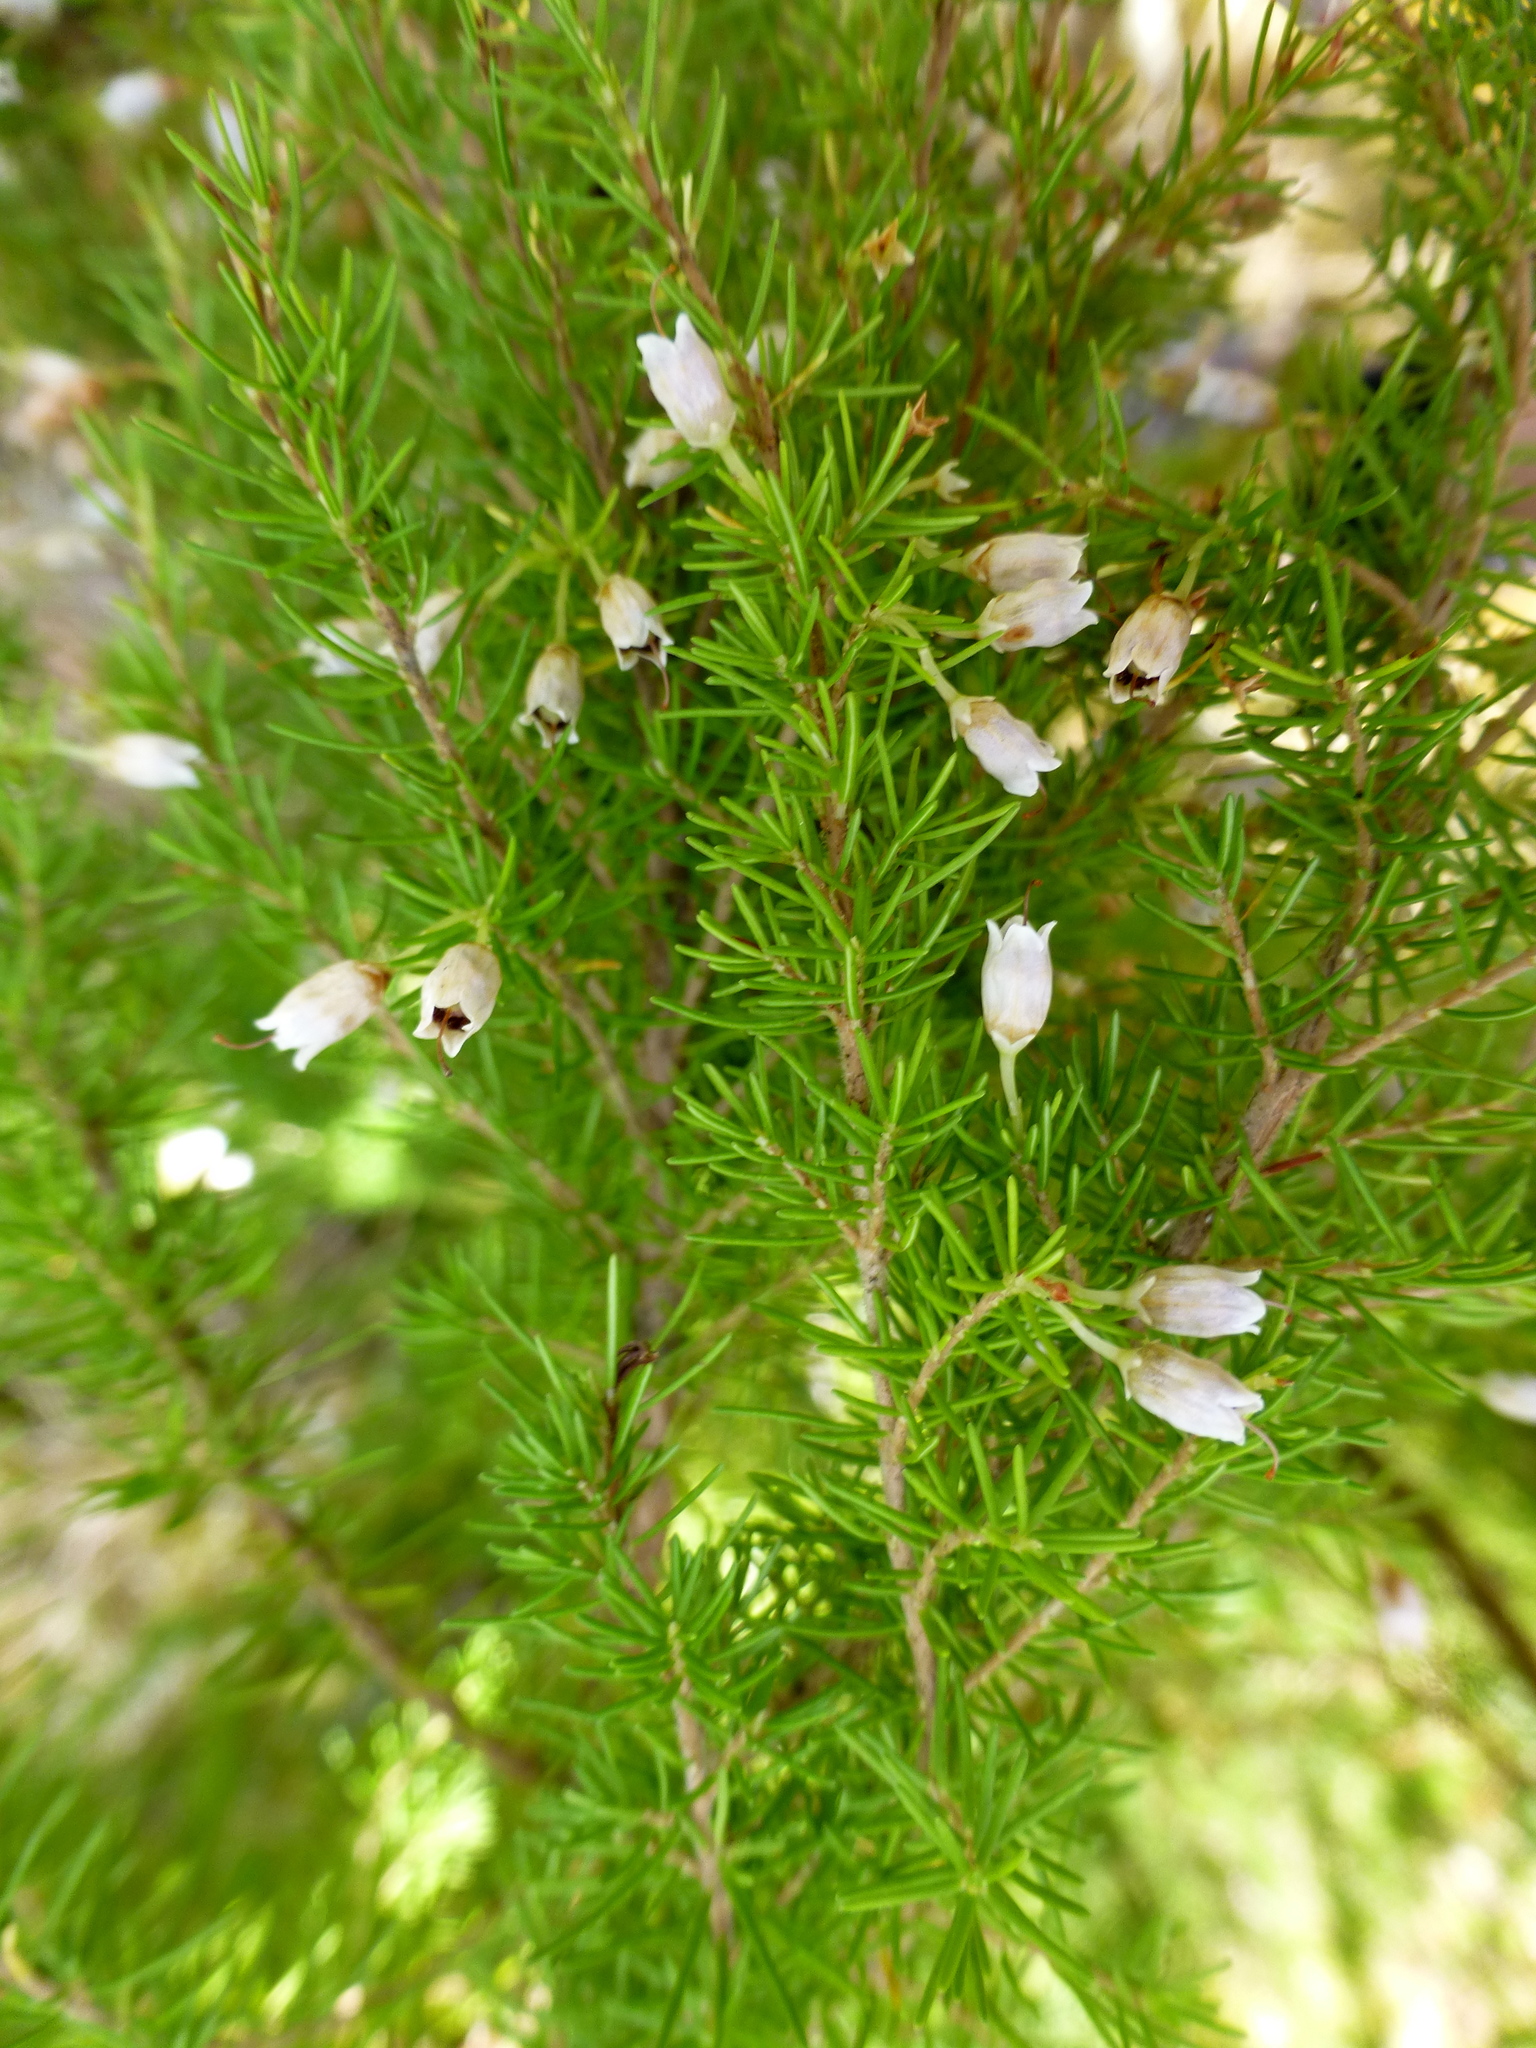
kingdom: Plantae
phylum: Tracheophyta
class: Magnoliopsida
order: Ericales
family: Ericaceae
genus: Erica
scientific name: Erica lusitanica
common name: Spanish heath
